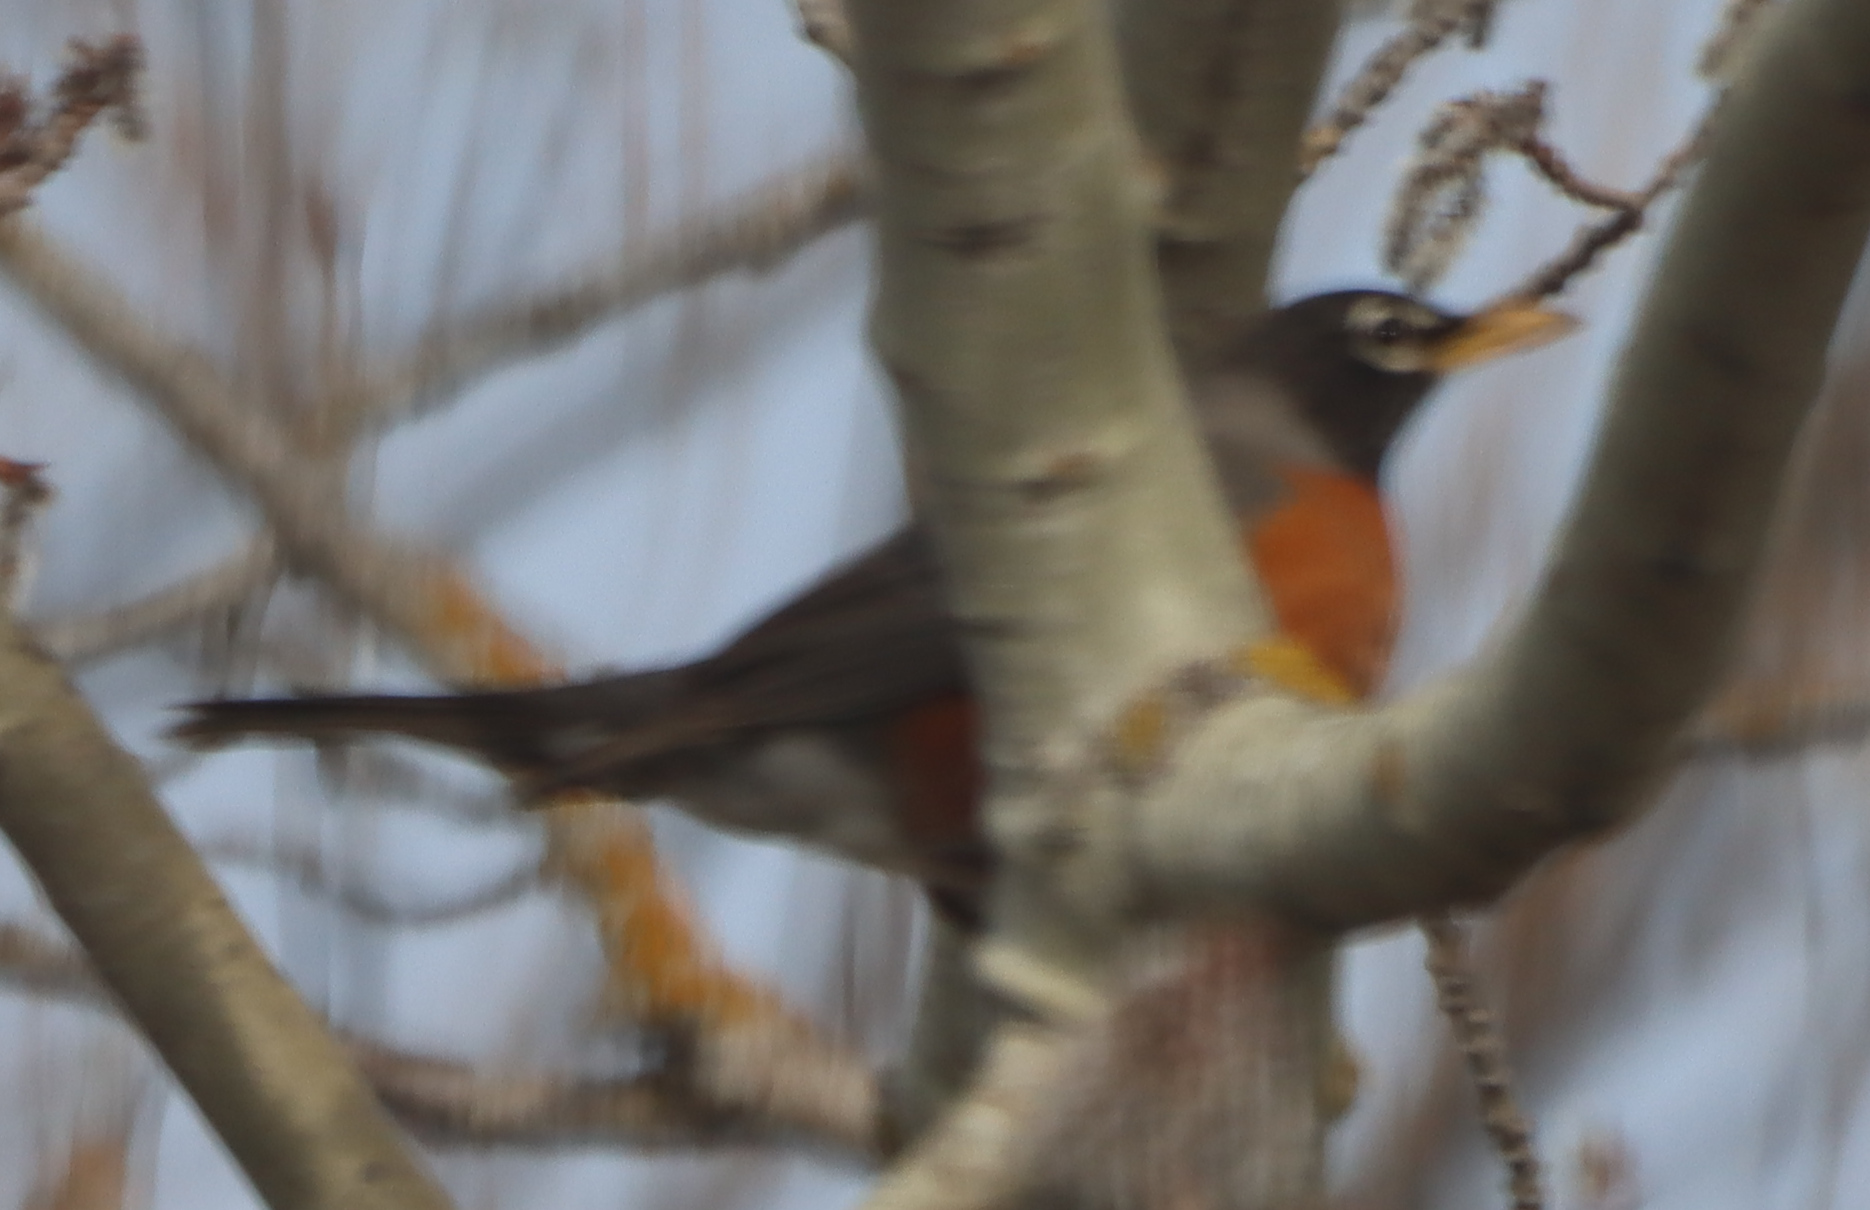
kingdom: Animalia
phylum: Chordata
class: Aves
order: Passeriformes
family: Turdidae
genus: Turdus
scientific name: Turdus migratorius
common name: American robin
